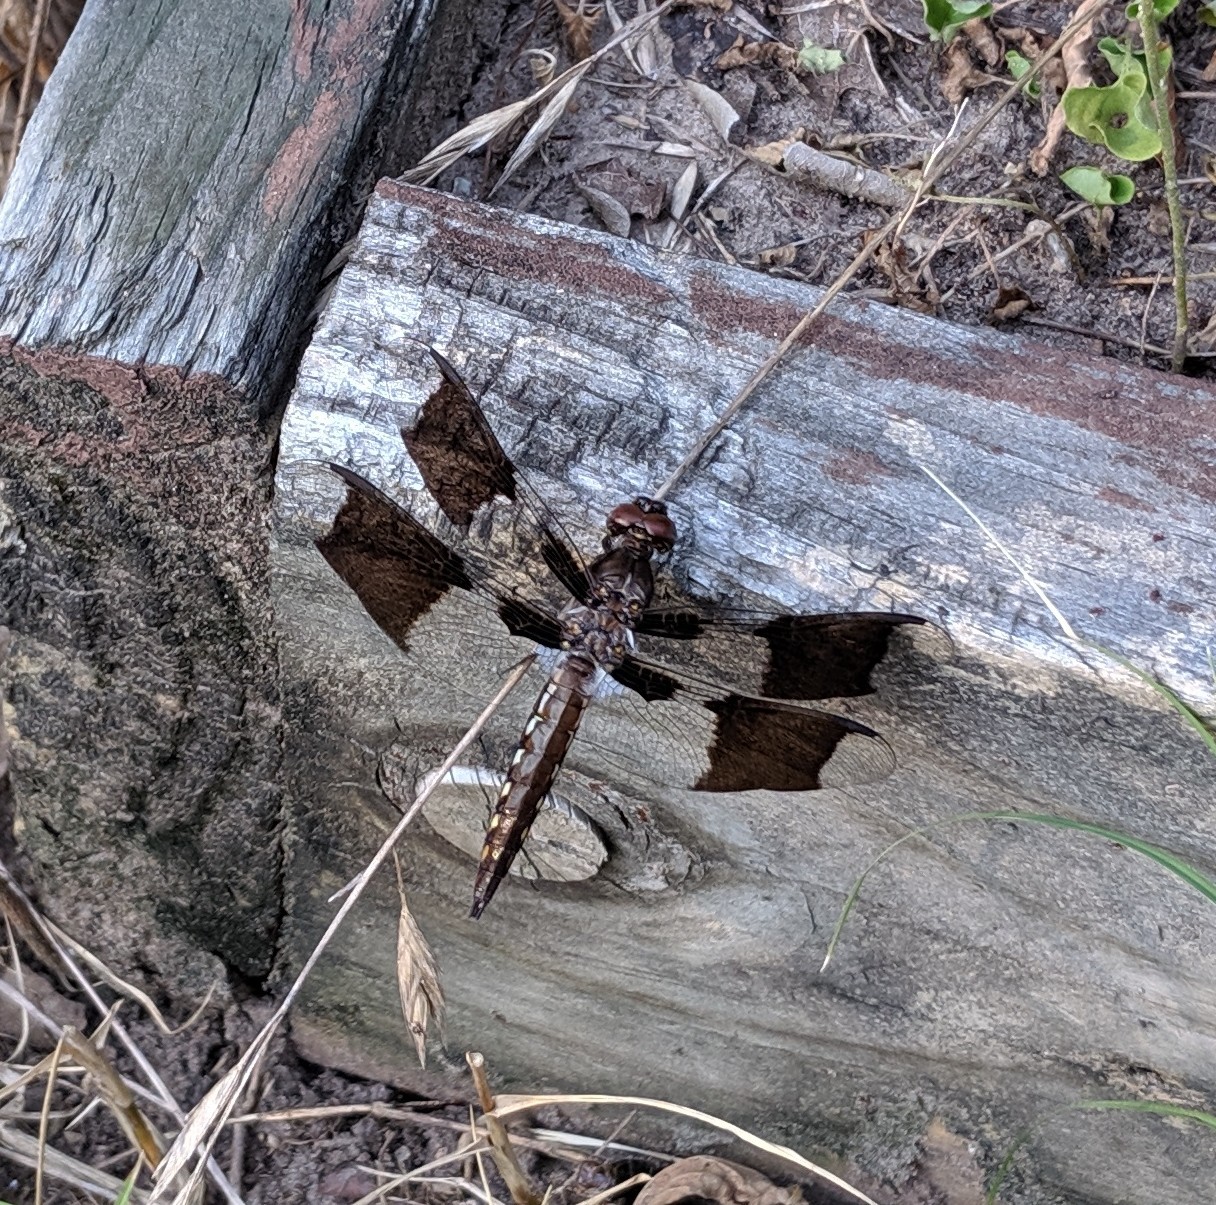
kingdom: Animalia
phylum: Arthropoda
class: Insecta
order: Odonata
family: Libellulidae
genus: Plathemis
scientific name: Plathemis lydia
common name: Common whitetail
